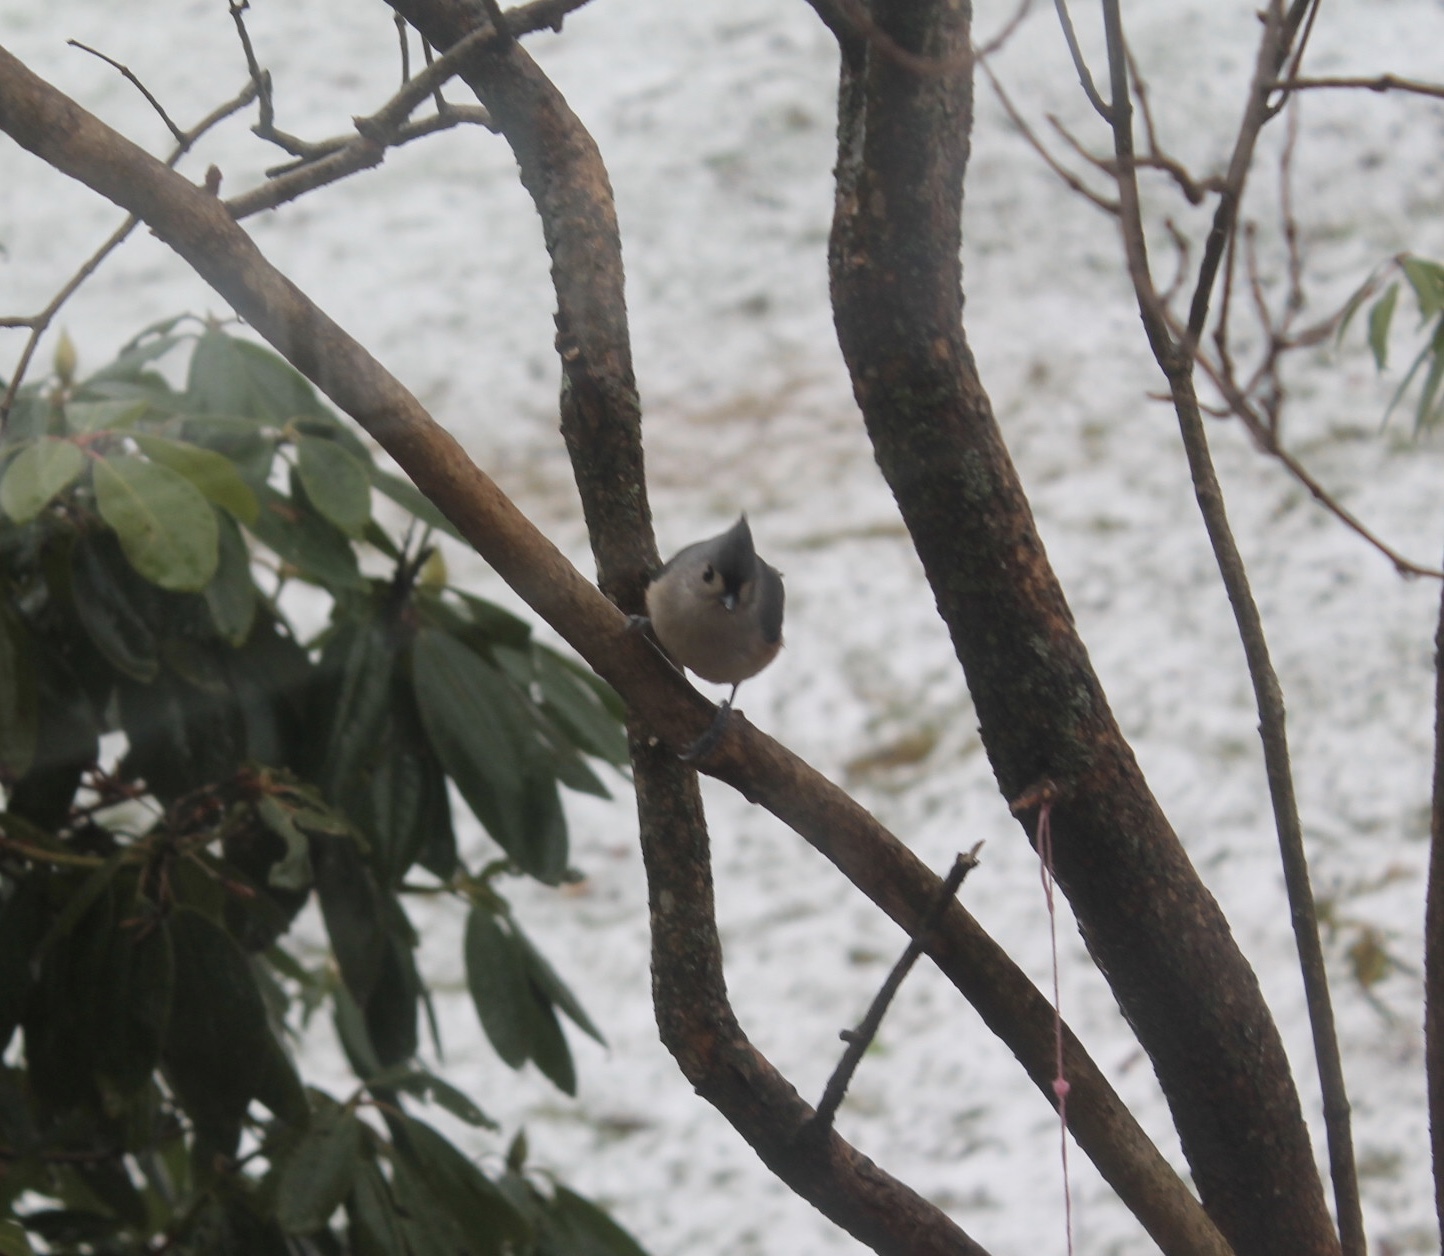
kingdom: Animalia
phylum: Chordata
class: Aves
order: Passeriformes
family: Paridae
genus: Baeolophus
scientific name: Baeolophus bicolor
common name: Tufted titmouse
